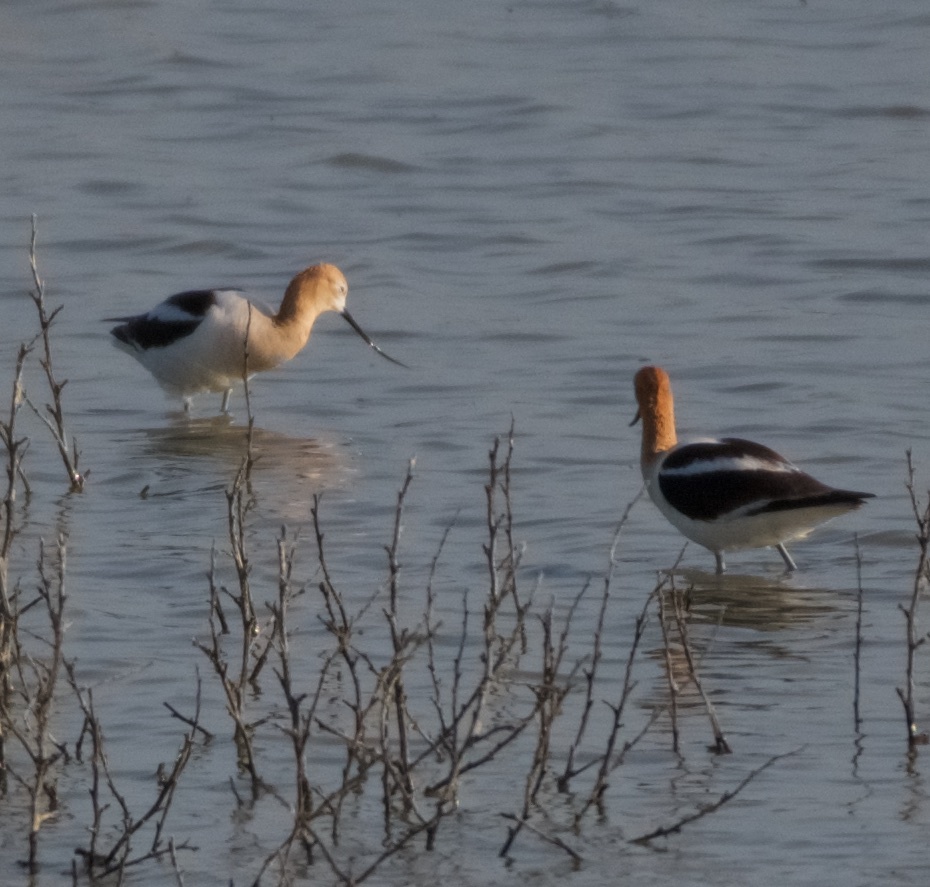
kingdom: Animalia
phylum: Chordata
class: Aves
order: Charadriiformes
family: Recurvirostridae
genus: Recurvirostra
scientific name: Recurvirostra americana
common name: American avocet
